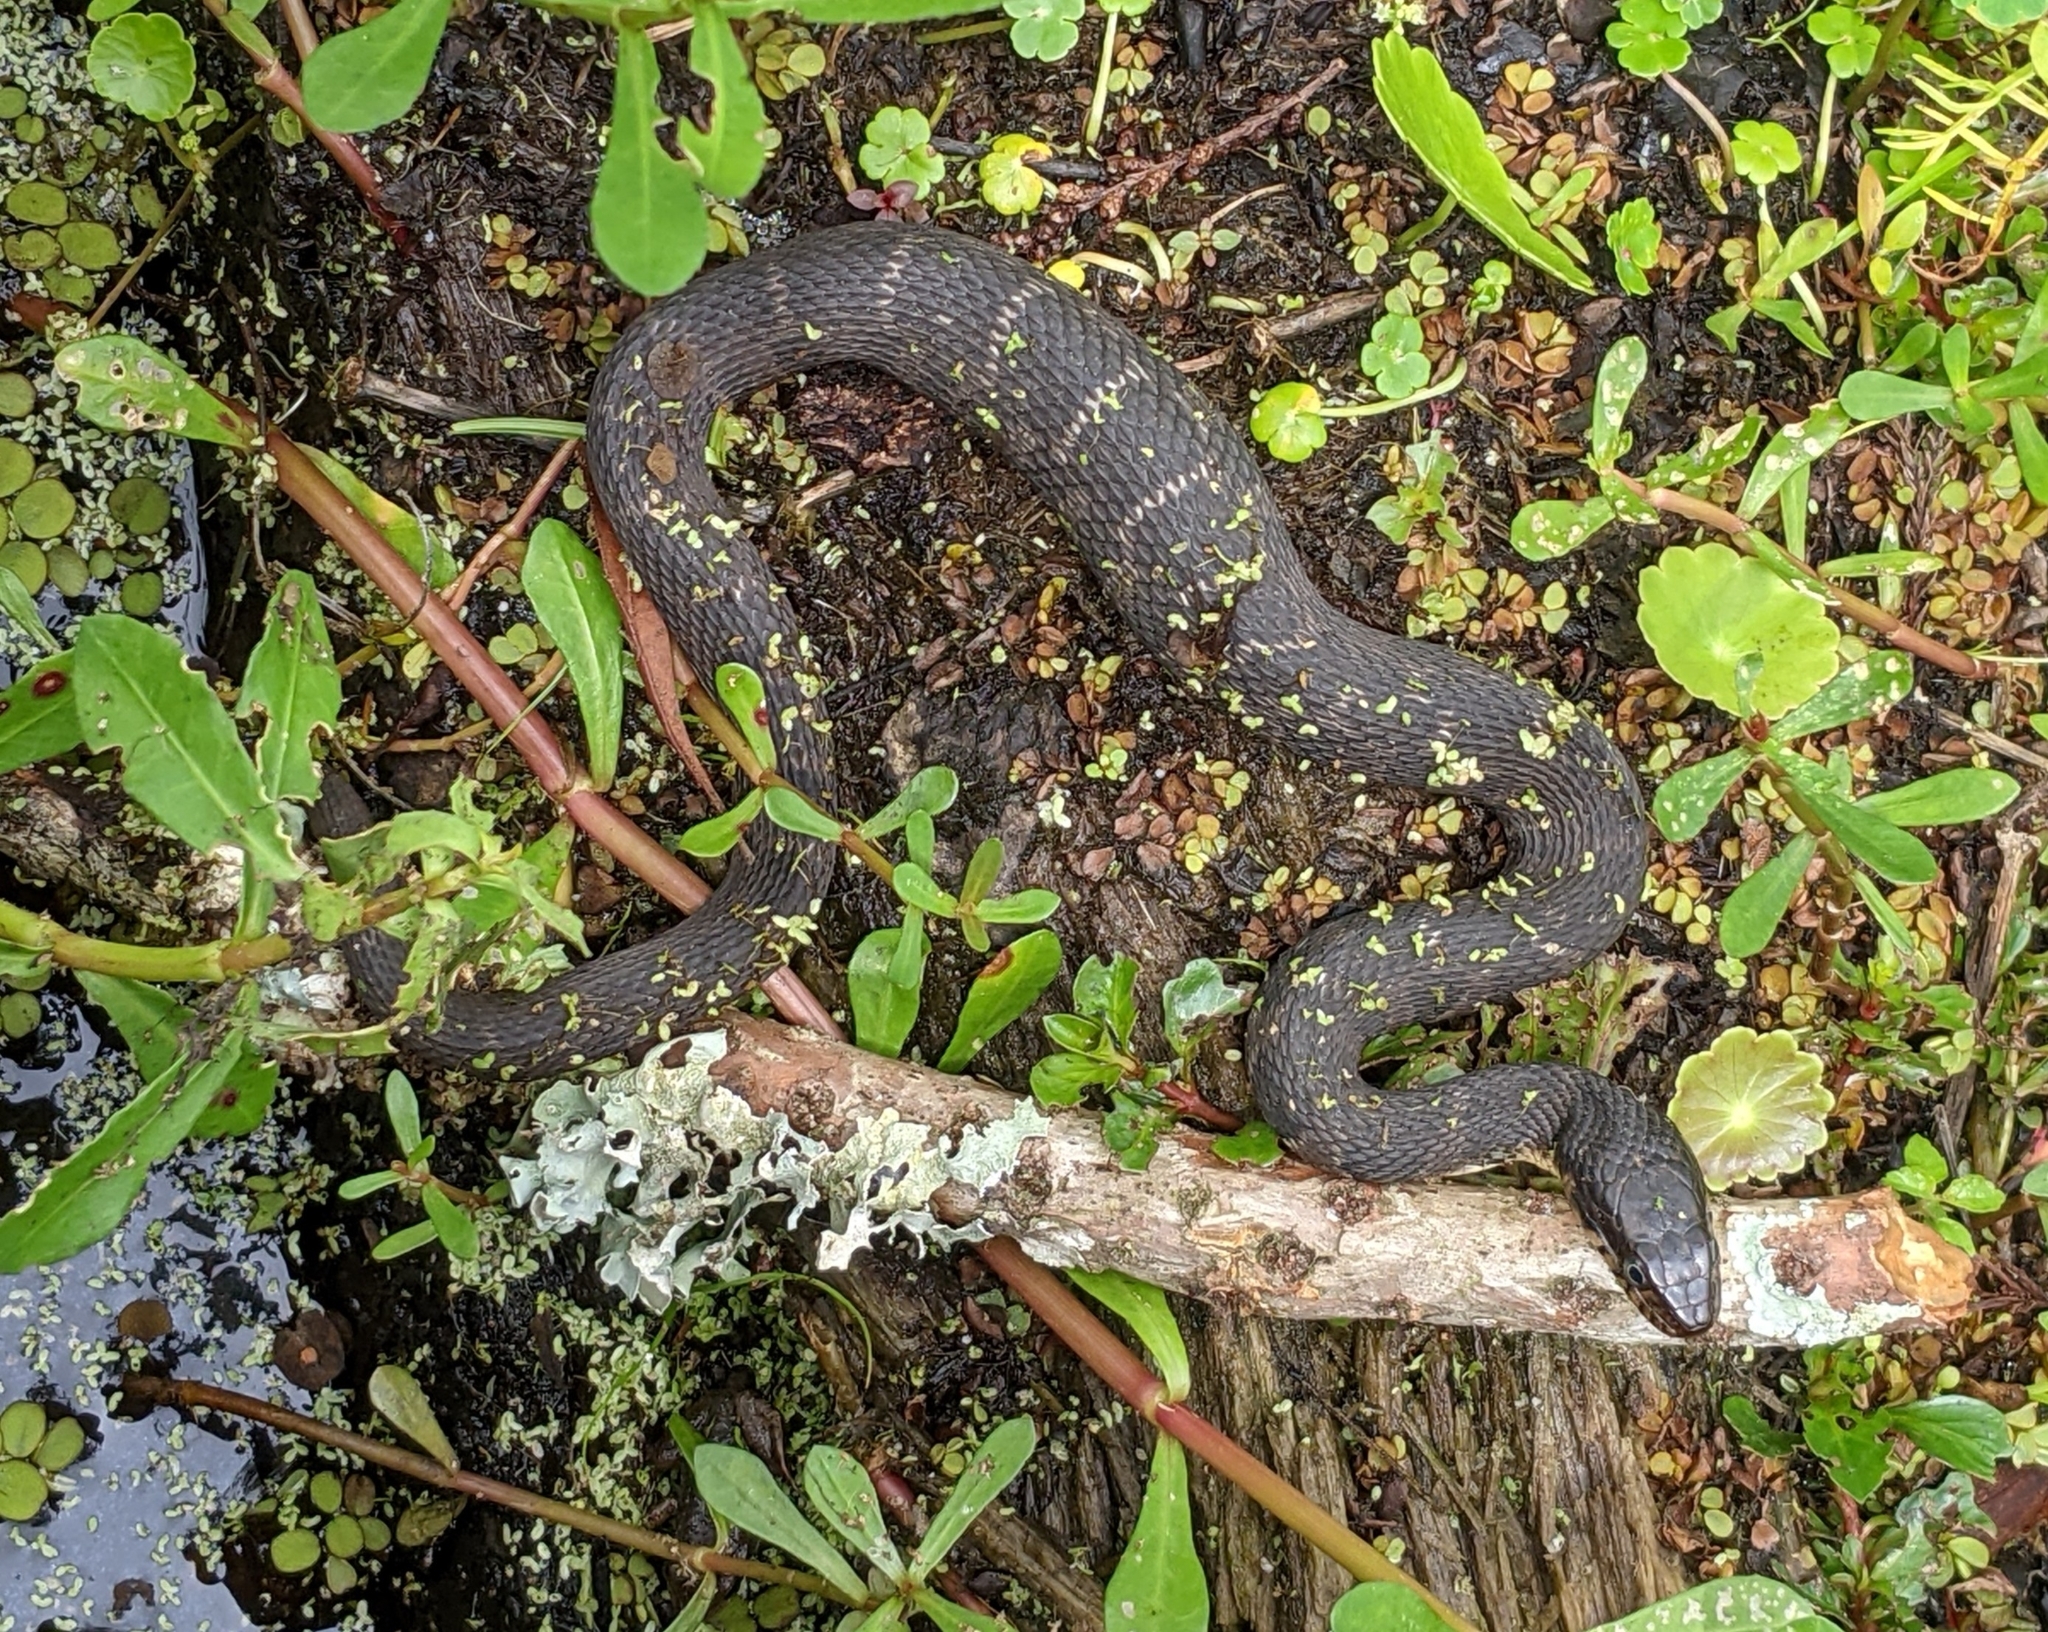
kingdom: Animalia
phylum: Chordata
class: Squamata
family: Colubridae
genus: Nerodia
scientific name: Nerodia fasciata
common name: Southern water snake
